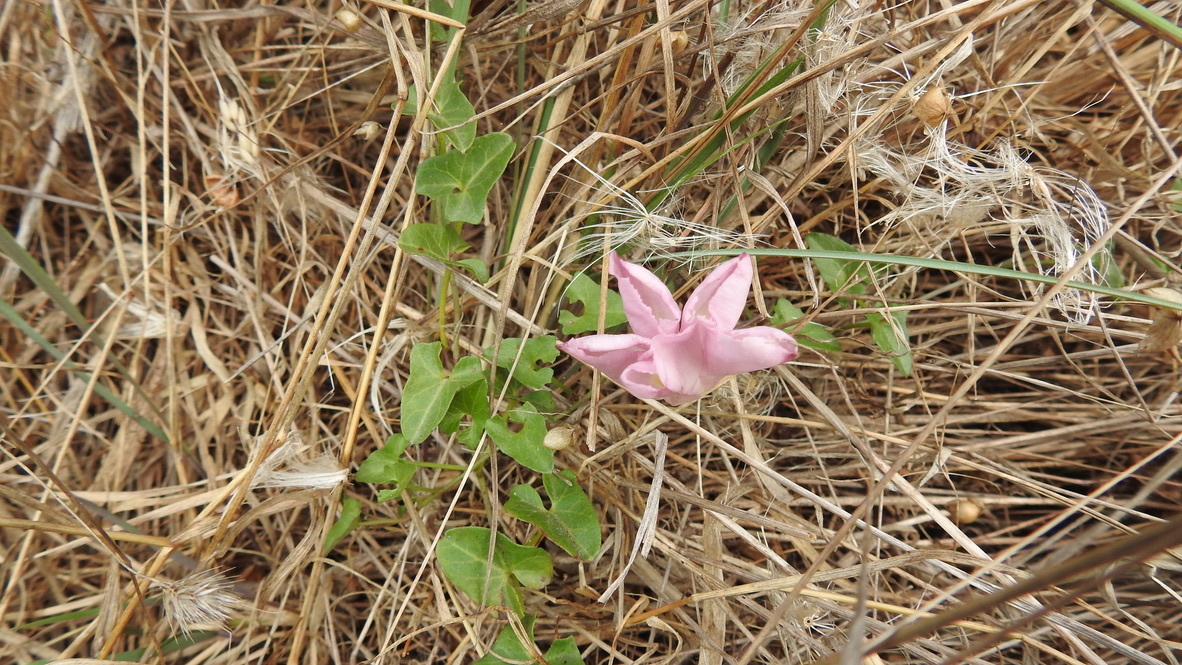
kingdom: Plantae
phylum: Tracheophyta
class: Magnoliopsida
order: Solanales
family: Convolvulaceae
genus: Calystegia
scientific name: Calystegia purpurata
